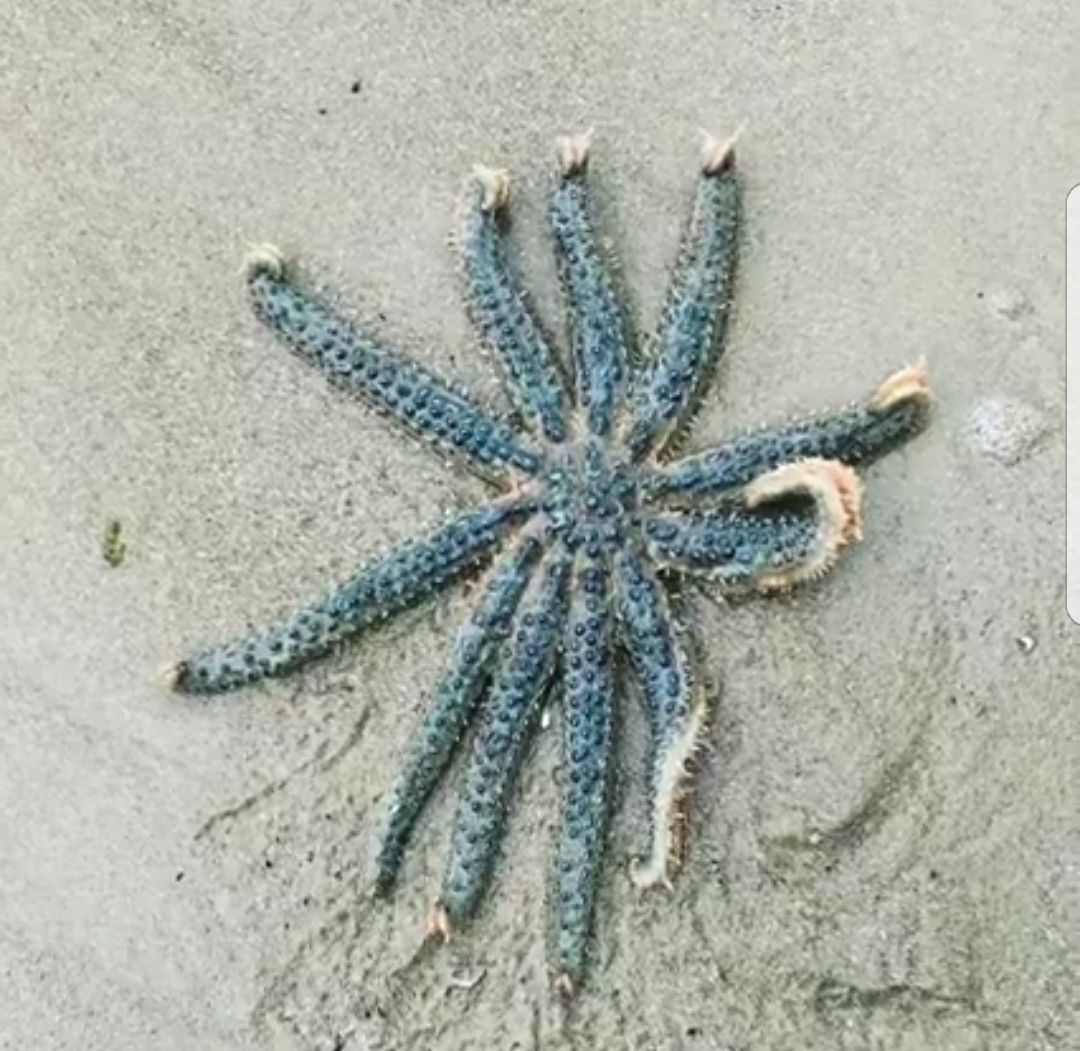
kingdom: Animalia
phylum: Echinodermata
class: Asteroidea
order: Forcipulatida
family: Asteriidae
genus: Coscinasterias
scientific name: Coscinasterias muricata
